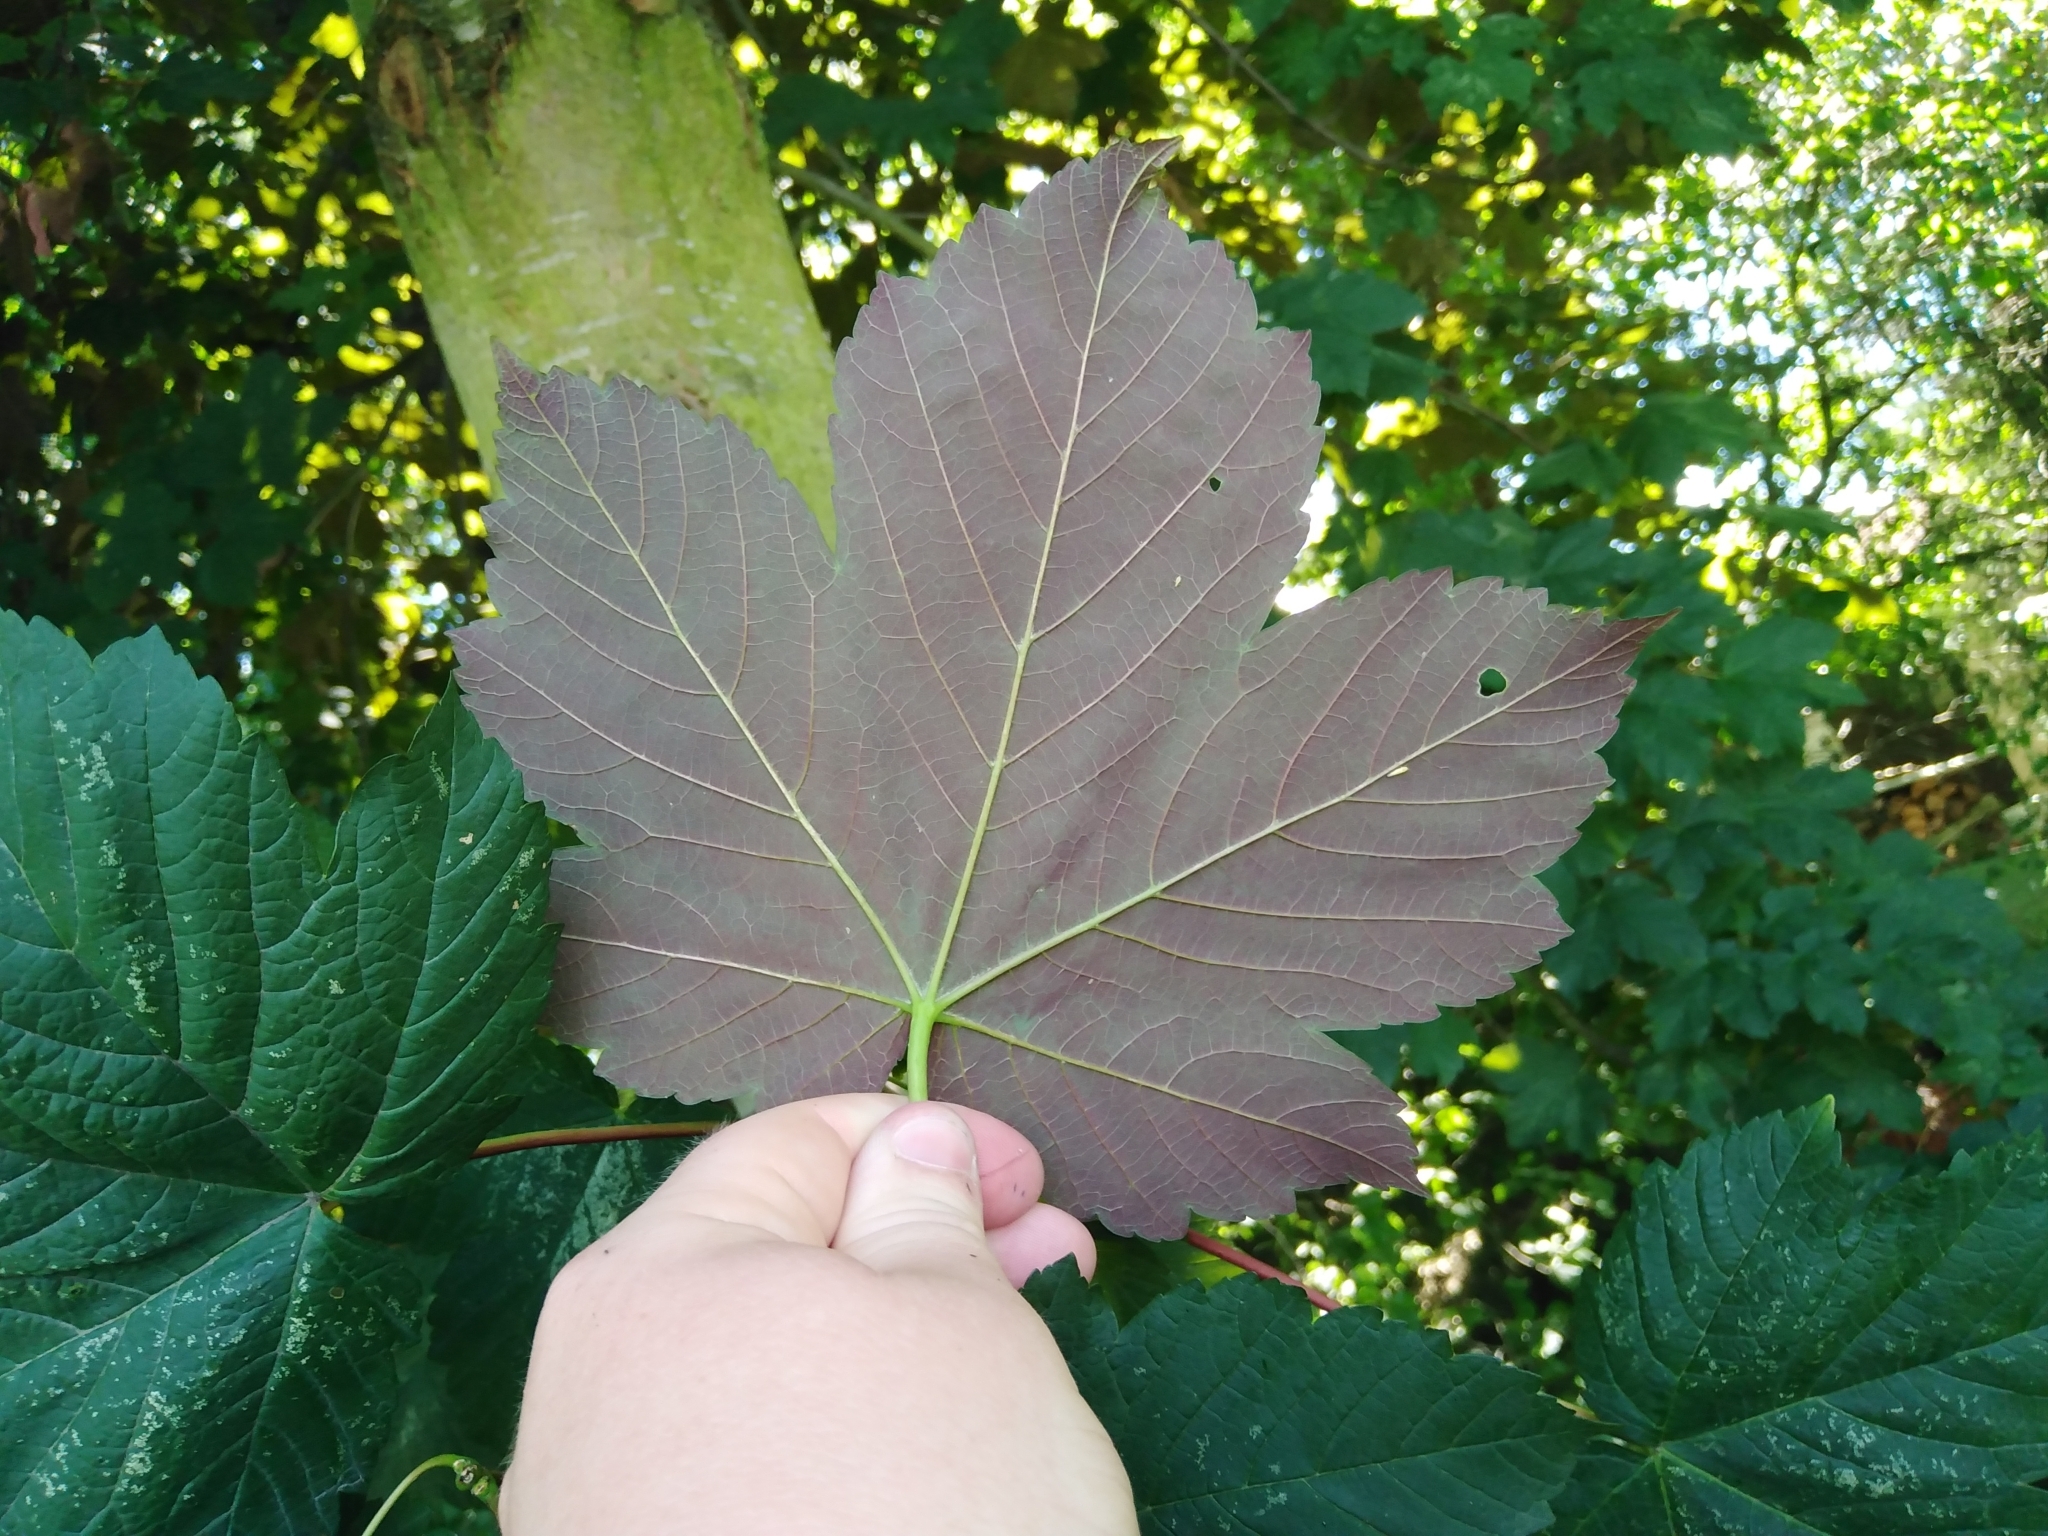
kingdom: Plantae
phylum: Tracheophyta
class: Magnoliopsida
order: Sapindales
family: Sapindaceae
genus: Acer
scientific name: Acer pseudoplatanus
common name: Sycamore
